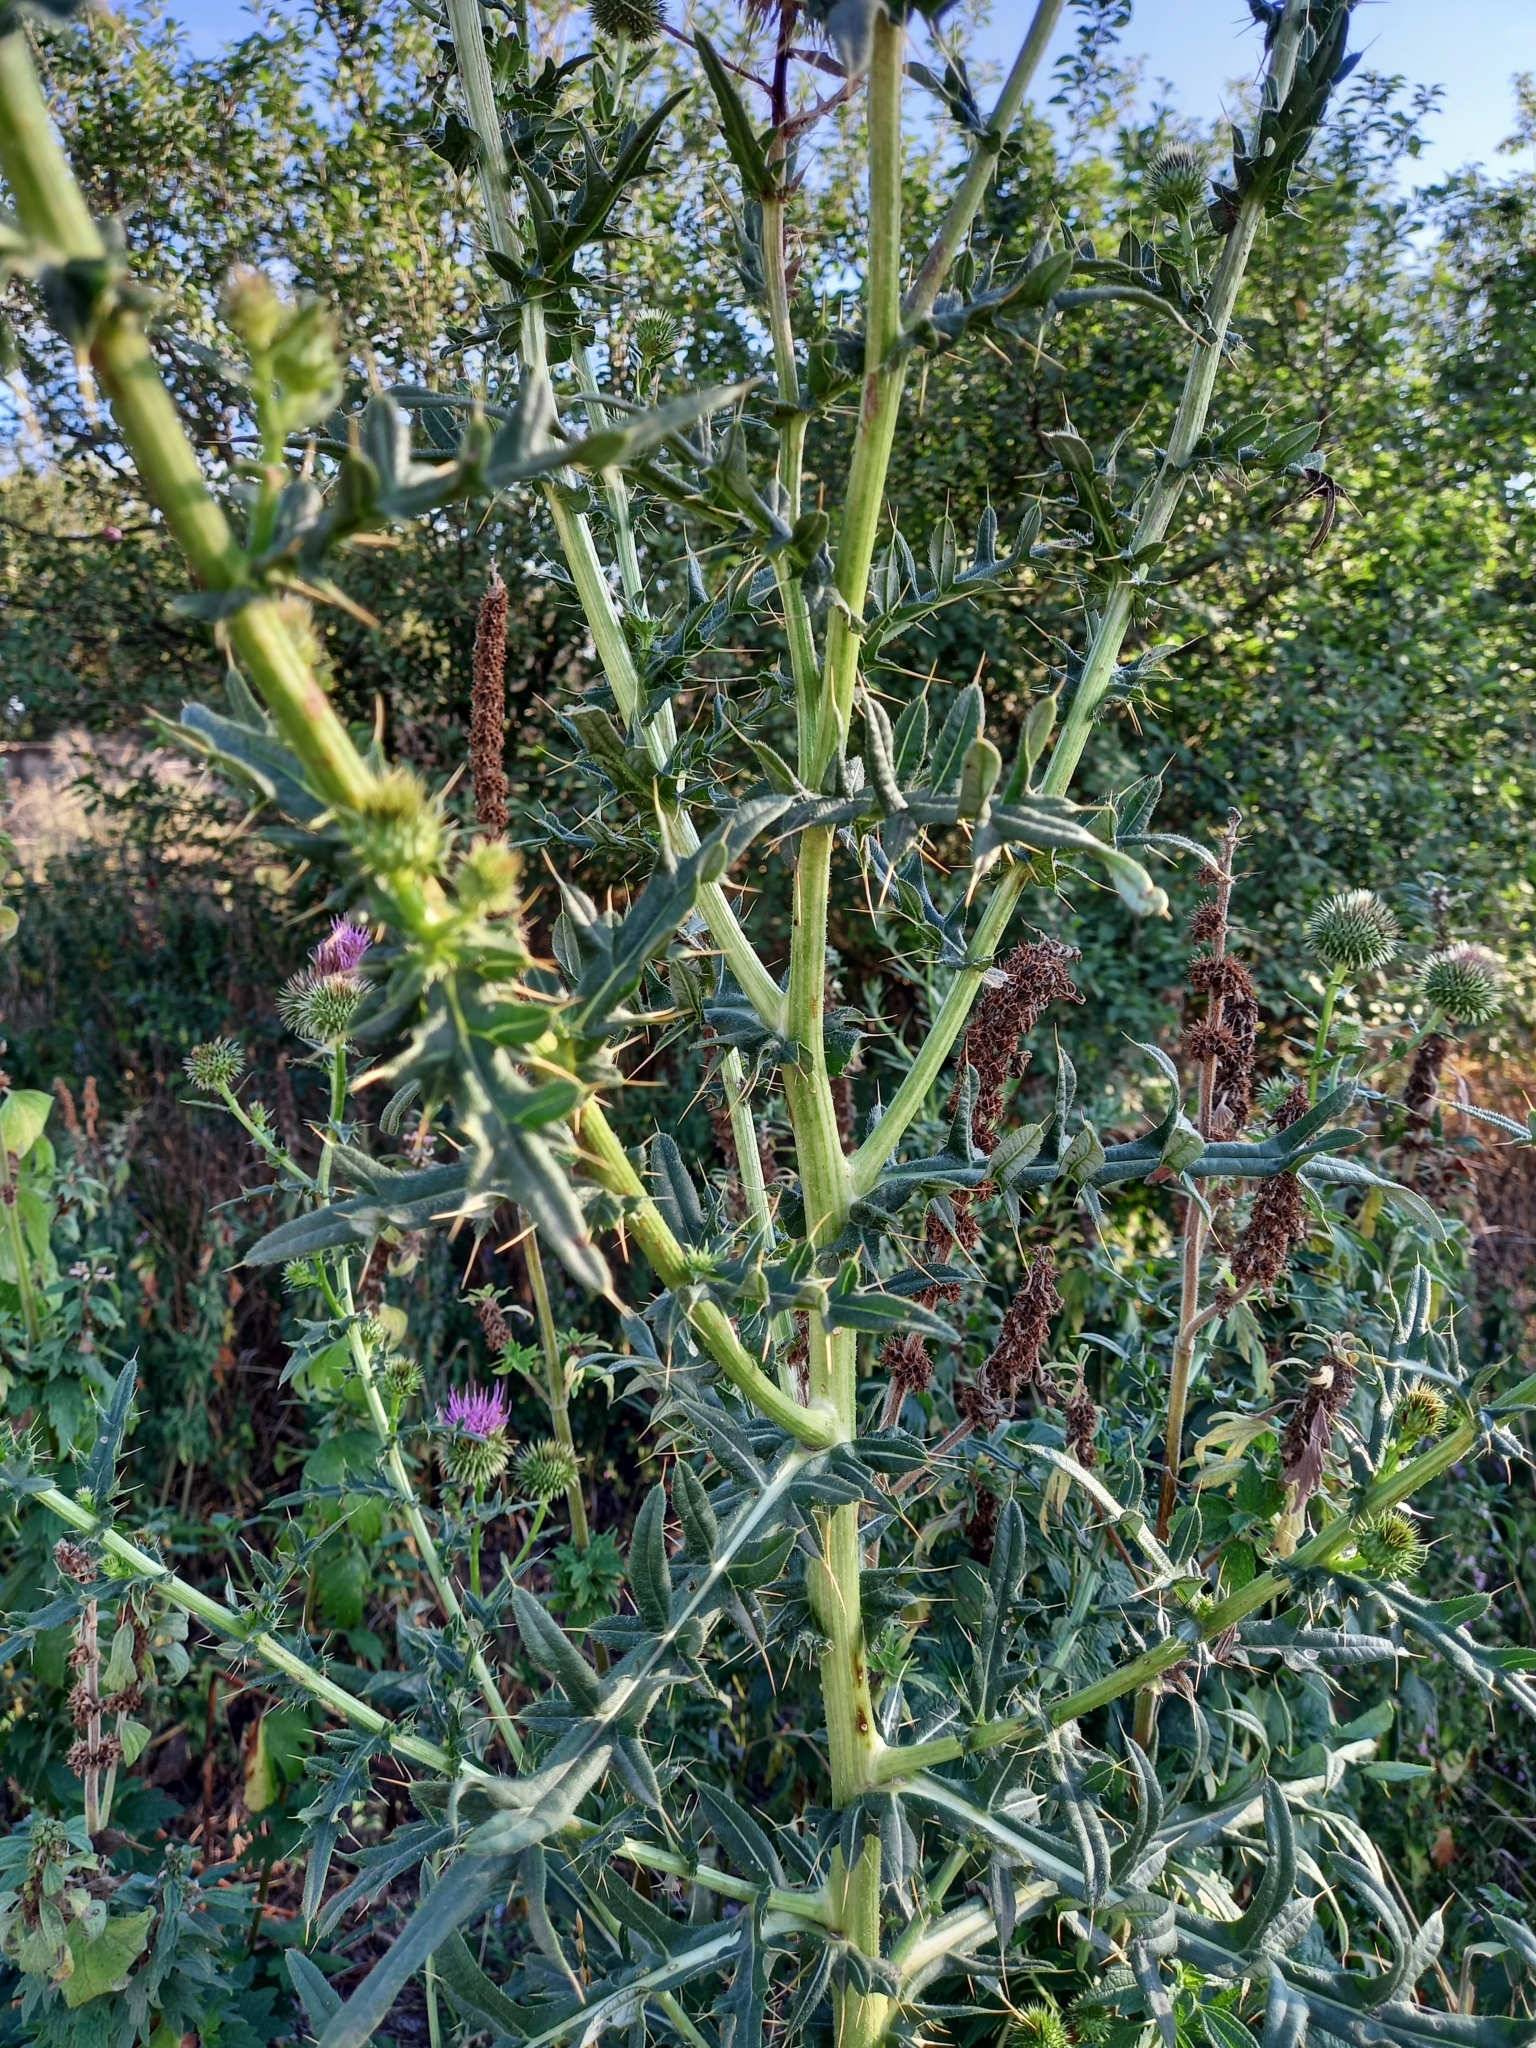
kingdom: Plantae
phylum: Tracheophyta
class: Magnoliopsida
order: Asterales
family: Asteraceae
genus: Lophiolepis
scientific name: Lophiolepis ciliata
